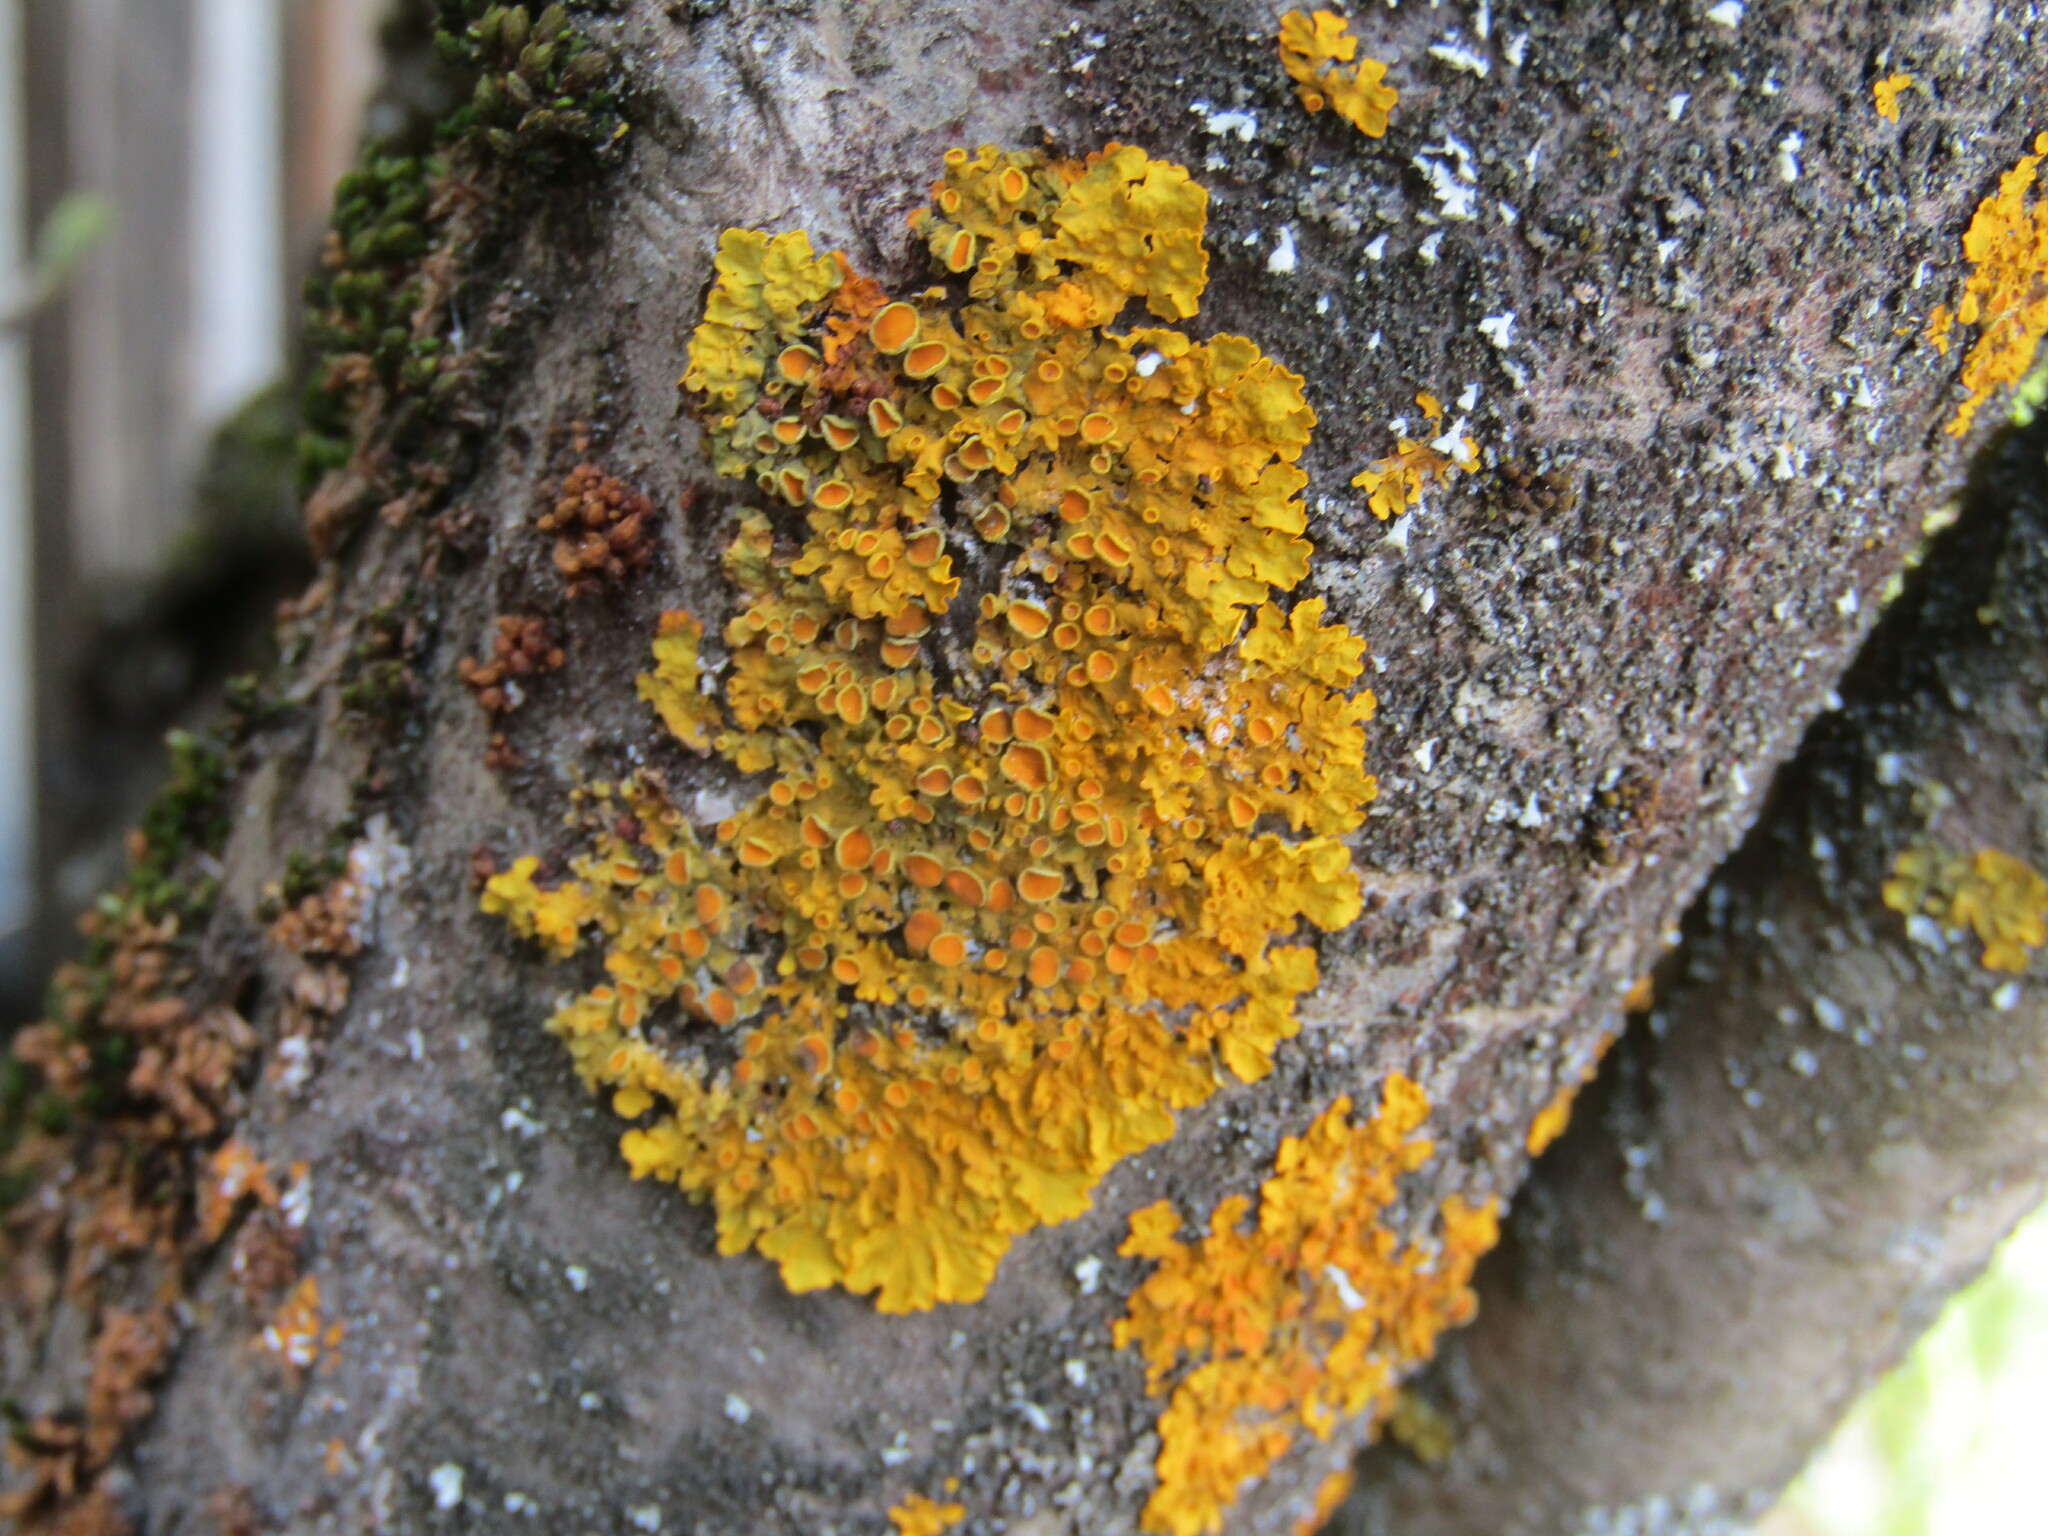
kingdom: Fungi
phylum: Ascomycota
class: Lecanoromycetes
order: Teloschistales
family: Teloschistaceae
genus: Xanthoria
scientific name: Xanthoria parietina
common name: Common orange lichen
